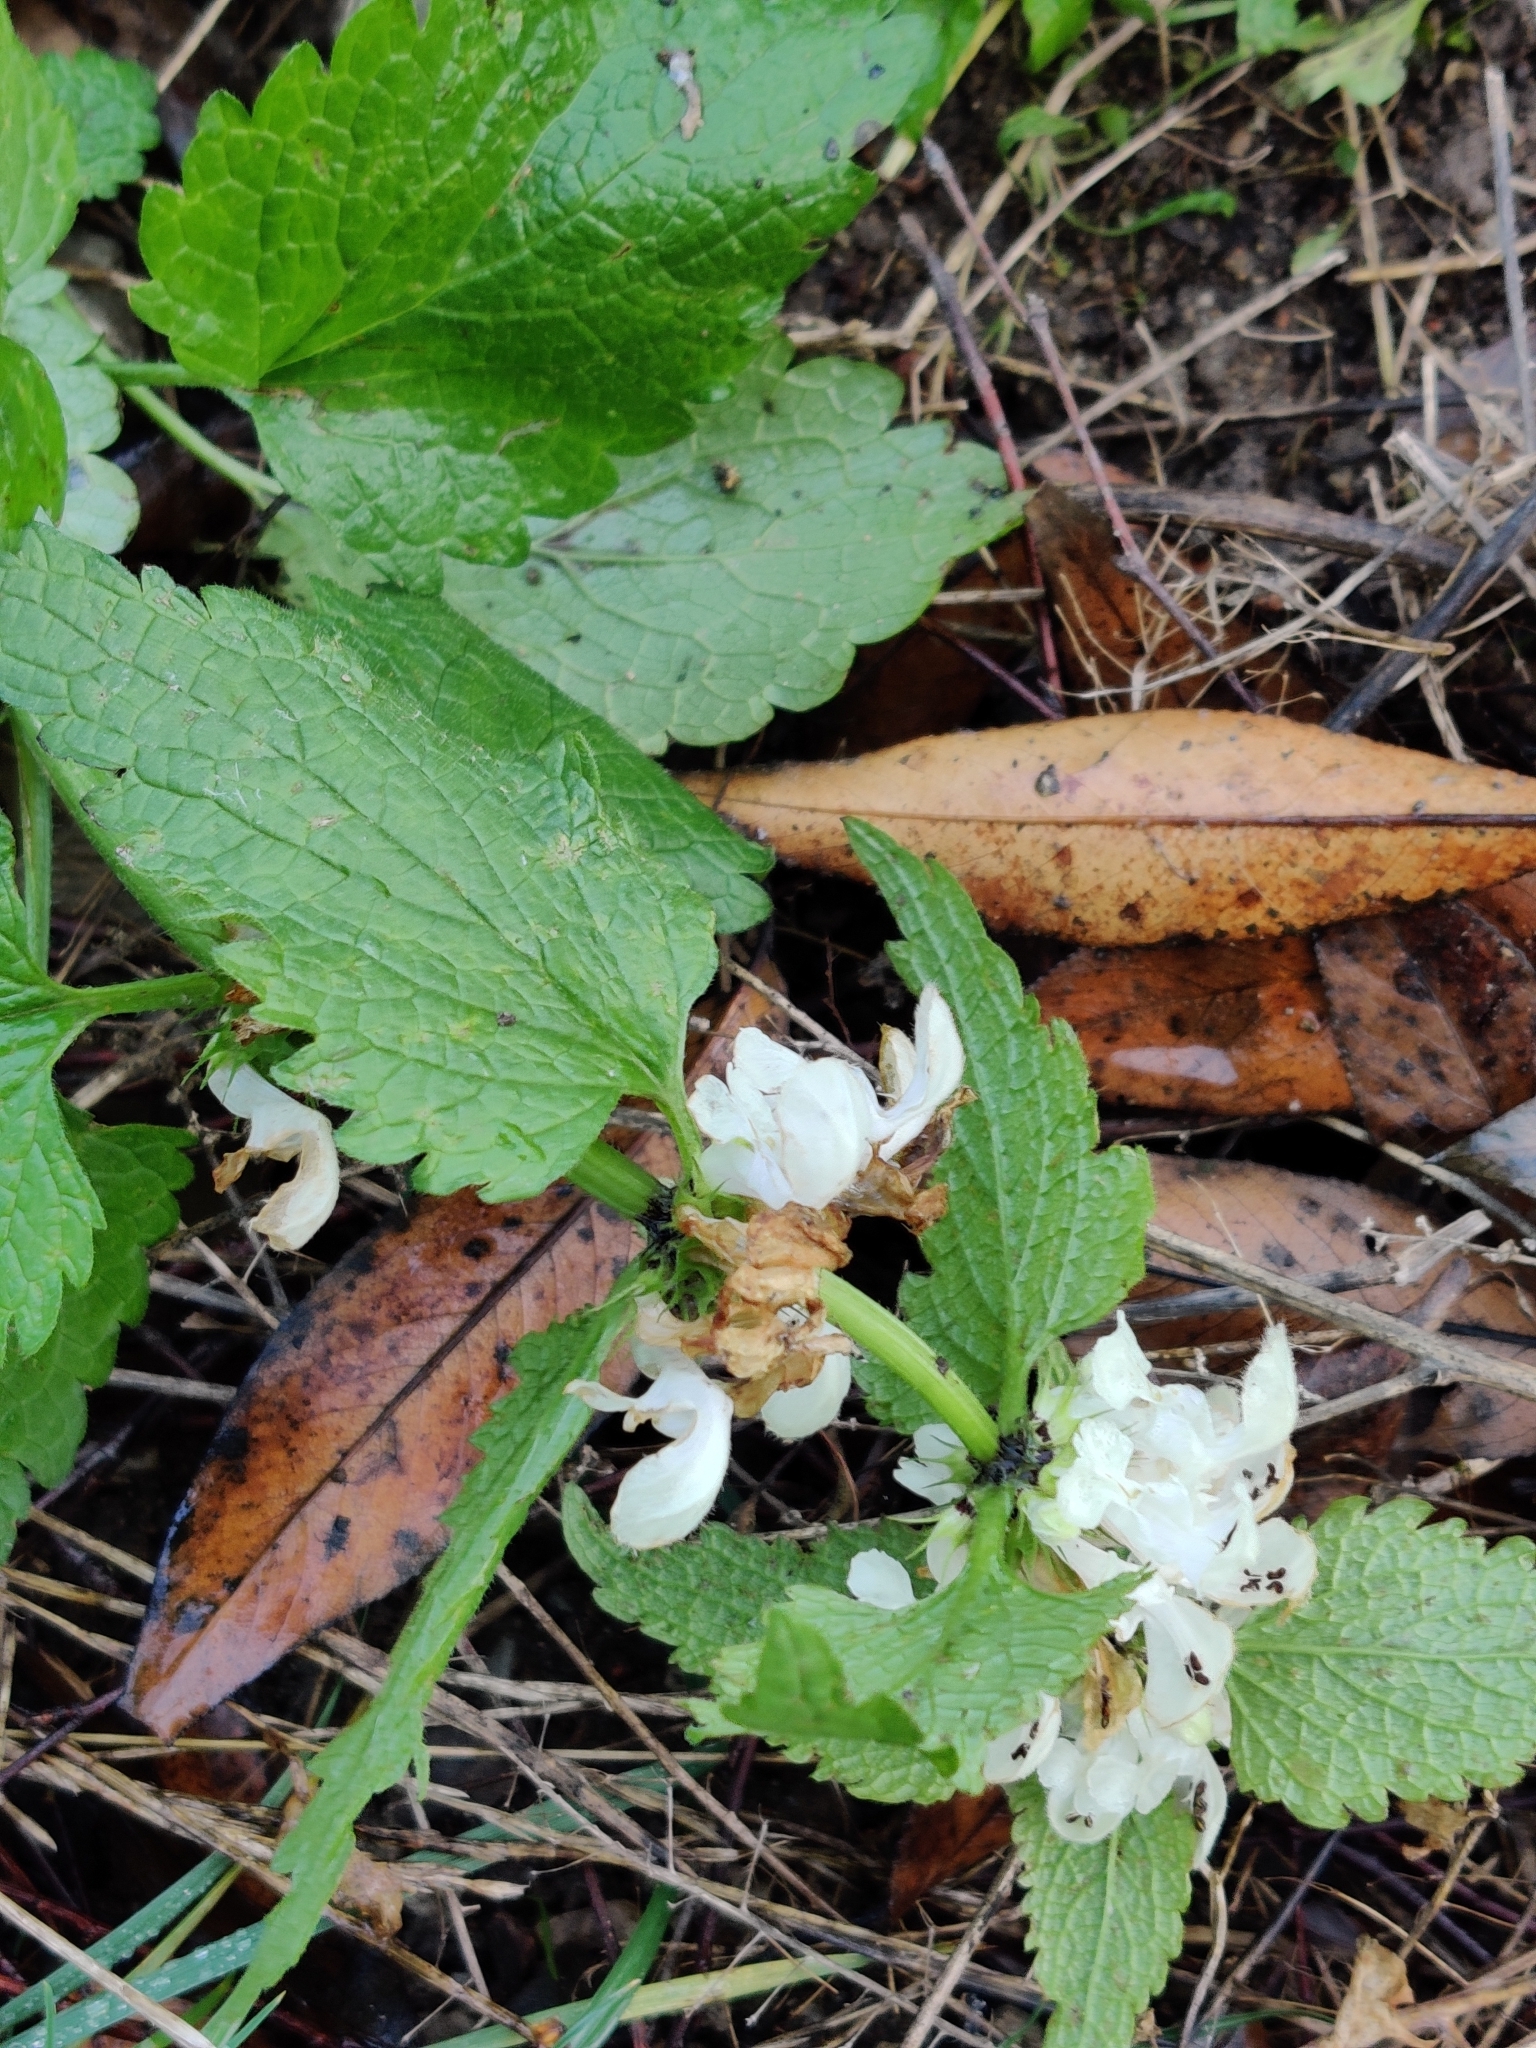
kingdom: Plantae
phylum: Tracheophyta
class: Magnoliopsida
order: Lamiales
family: Lamiaceae
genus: Lamium
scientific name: Lamium album
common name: White dead-nettle
